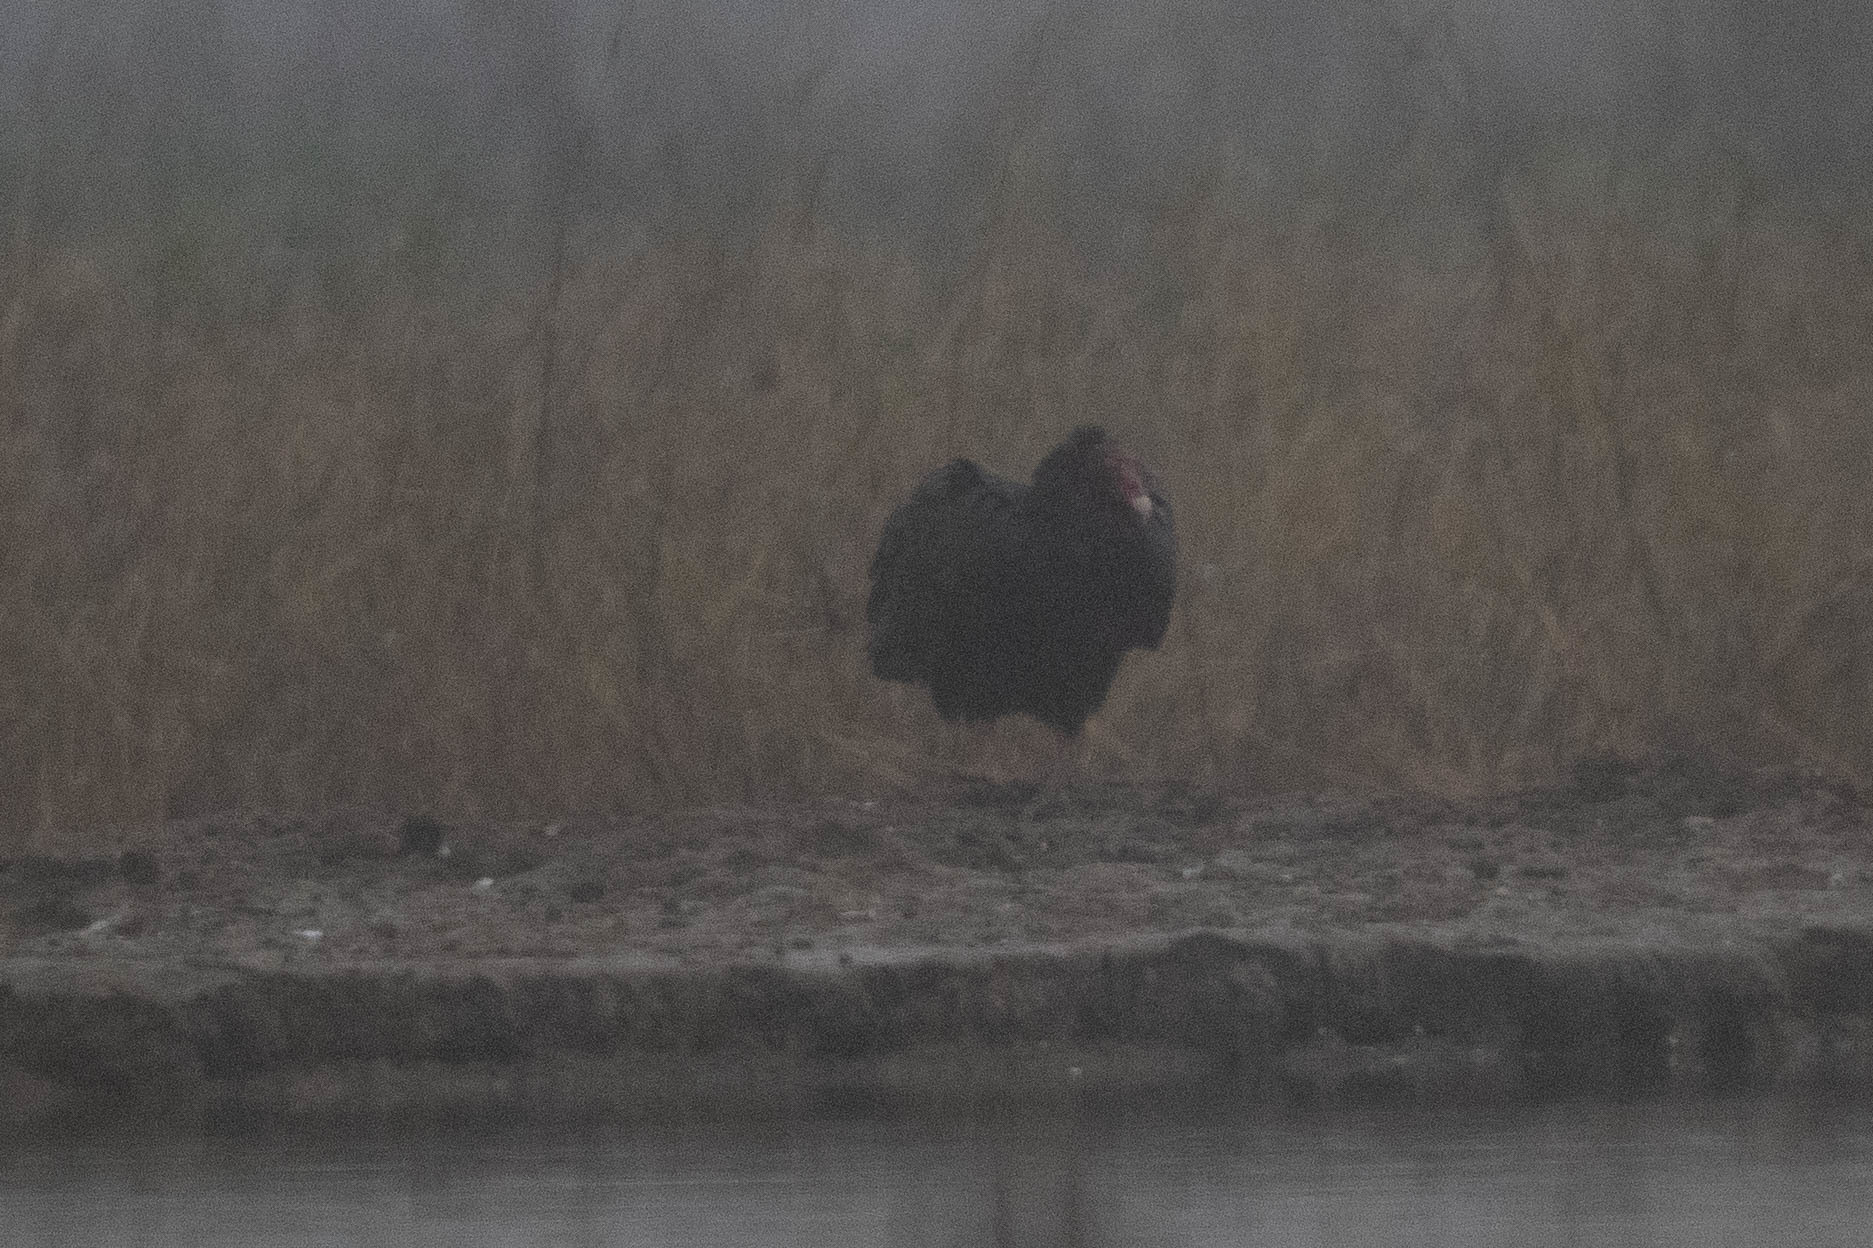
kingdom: Animalia
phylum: Chordata
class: Aves
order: Accipitriformes
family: Cathartidae
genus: Cathartes
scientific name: Cathartes aura
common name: Turkey vulture
